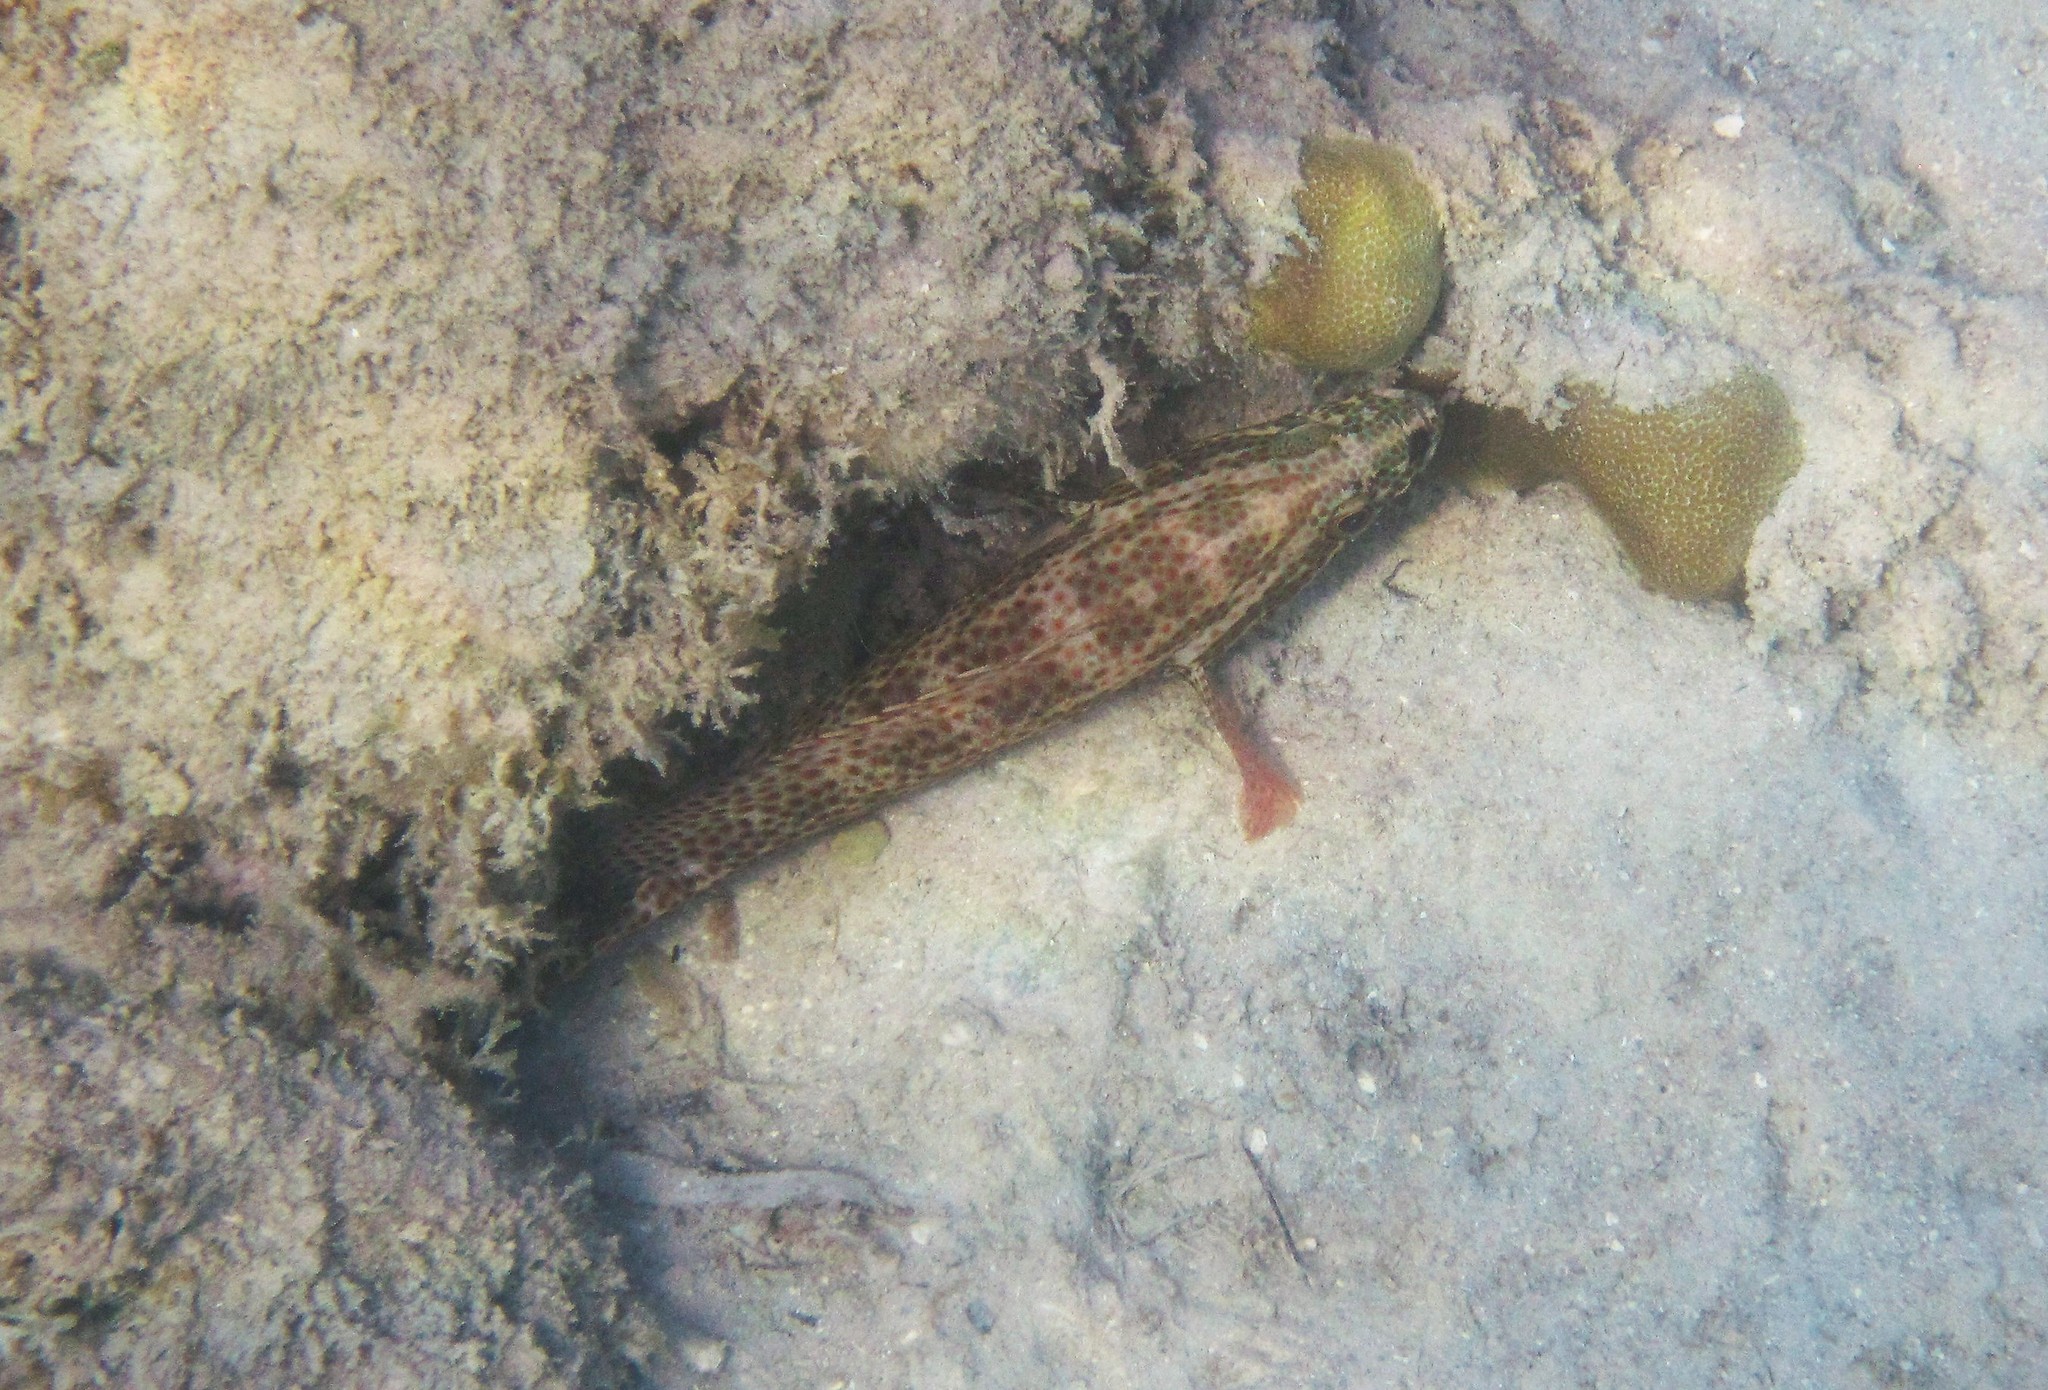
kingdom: Animalia
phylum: Chordata
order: Perciformes
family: Serranidae
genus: Cephalopholis
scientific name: Cephalopholis cruentata
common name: Graysby
